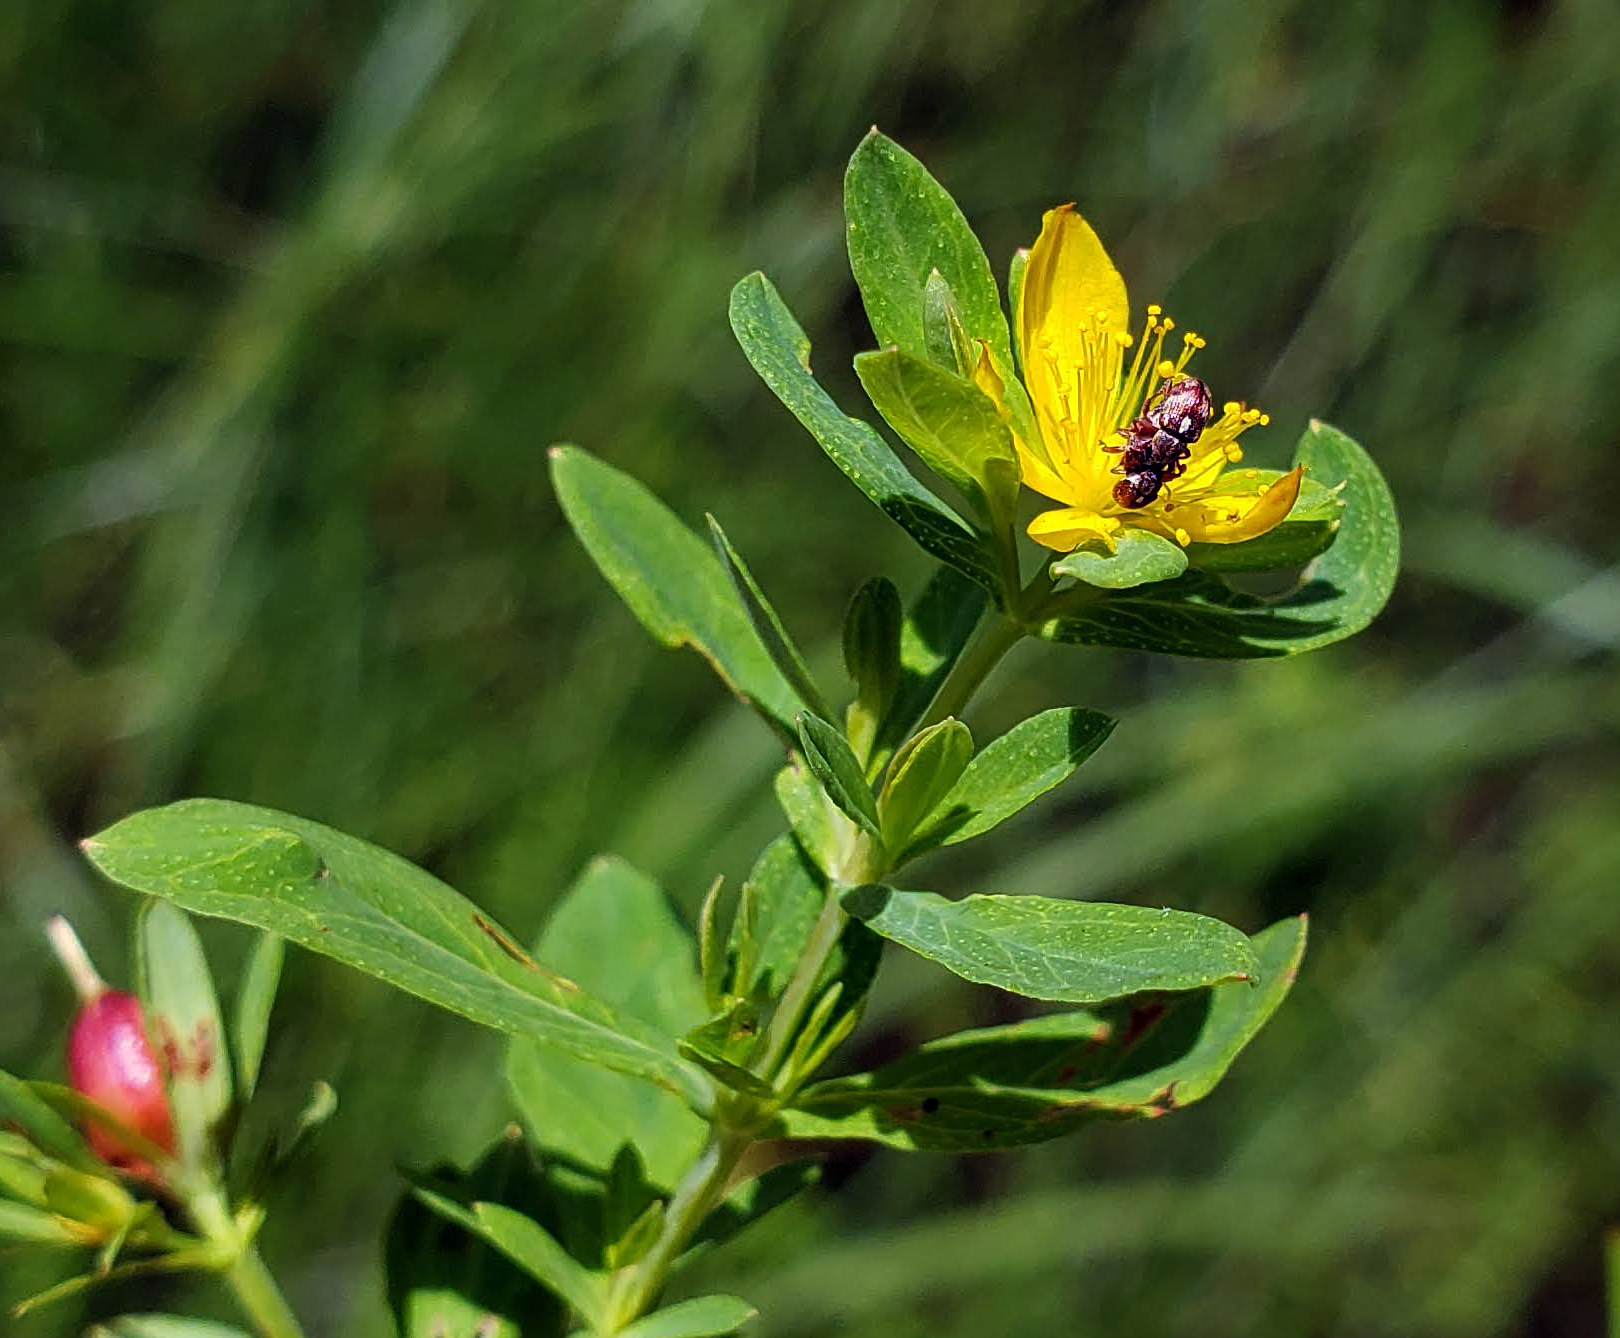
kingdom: Plantae
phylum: Tracheophyta
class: Magnoliopsida
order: Malpighiales
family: Hypericaceae
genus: Hypericum
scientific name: Hypericum ellipticum
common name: Elliptic st. john's-wort
